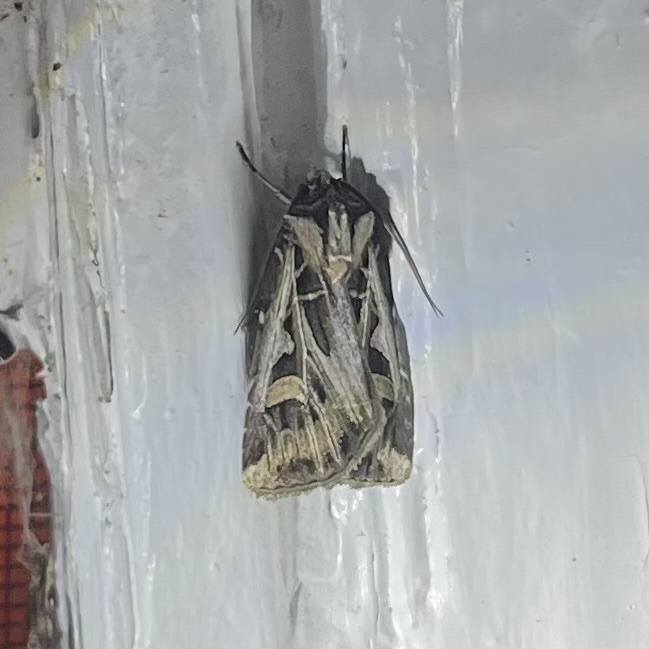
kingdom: Animalia
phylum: Arthropoda
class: Insecta
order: Lepidoptera
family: Noctuidae
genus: Feltia
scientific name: Feltia jaculifera
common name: Dingy cutworm moth
